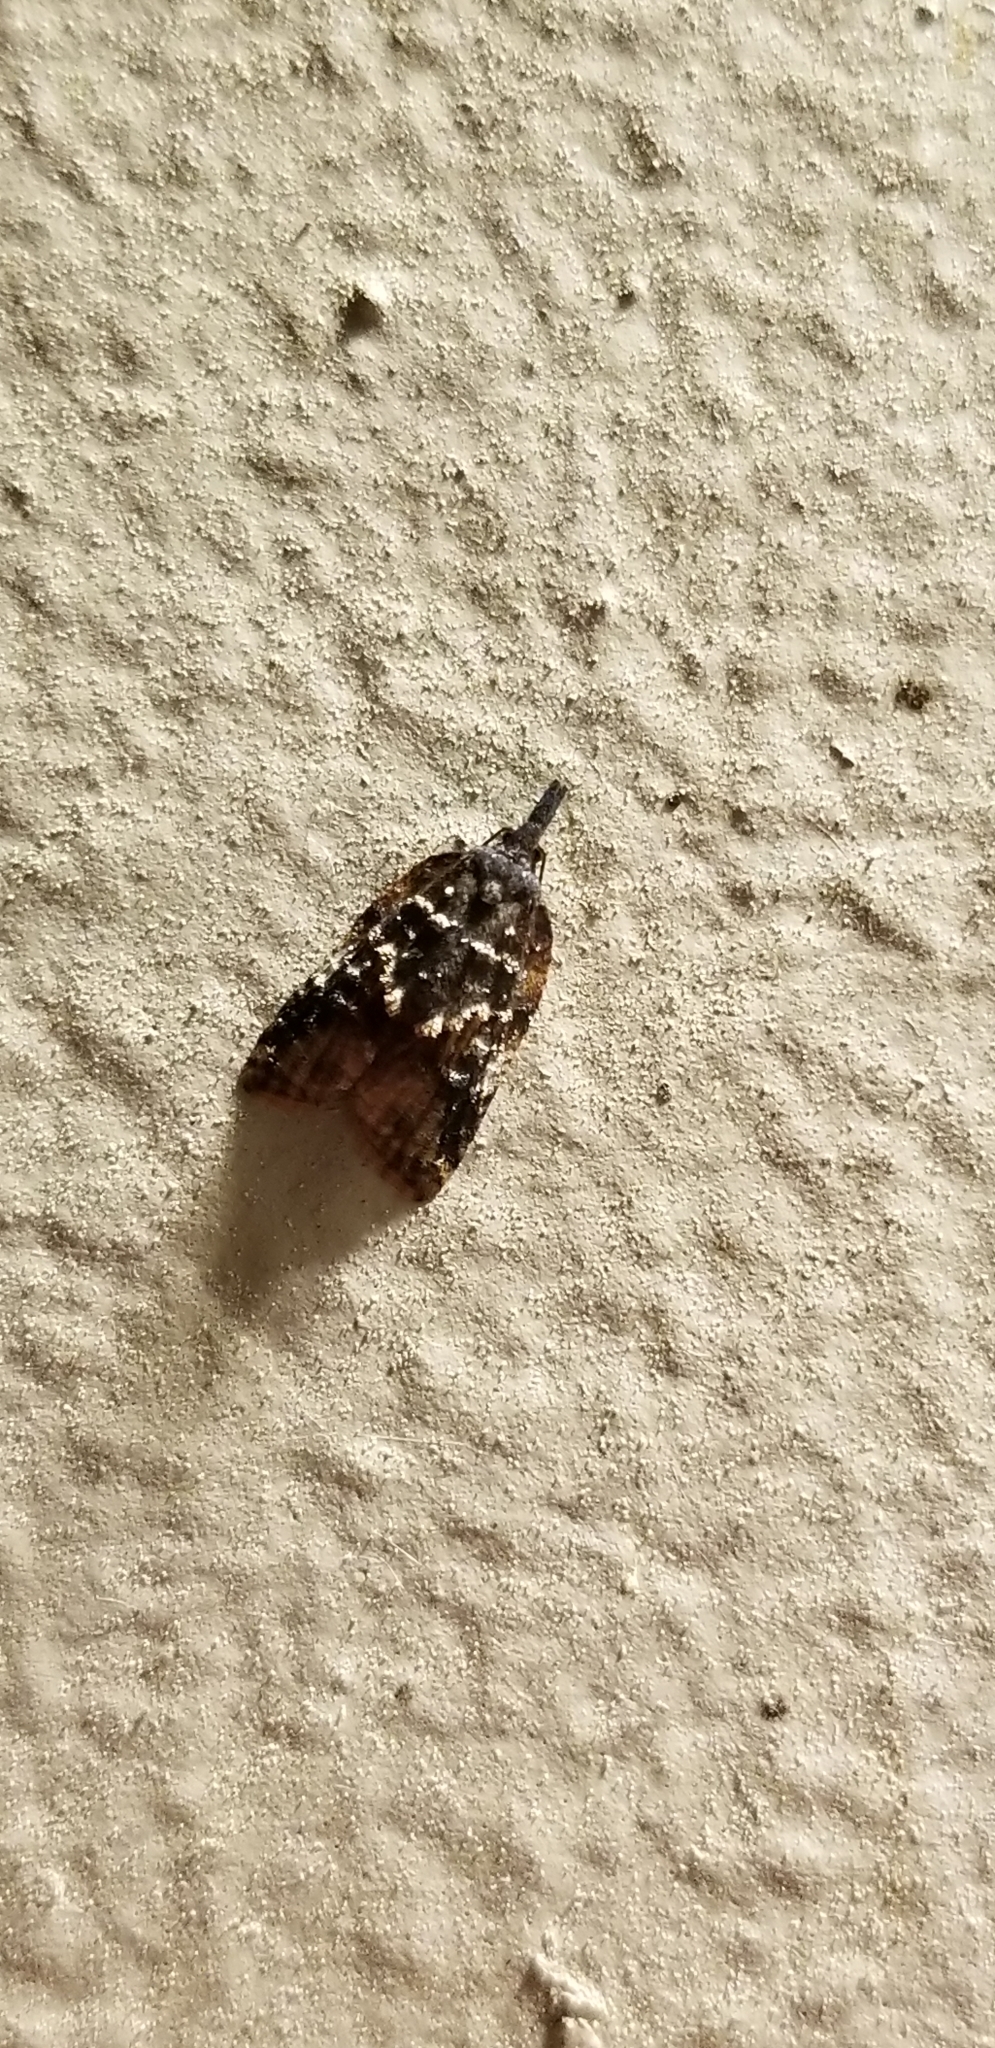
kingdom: Animalia
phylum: Arthropoda
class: Insecta
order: Lepidoptera
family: Tortricidae
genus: Platynota
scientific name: Platynota semiustana
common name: Singed platynota
